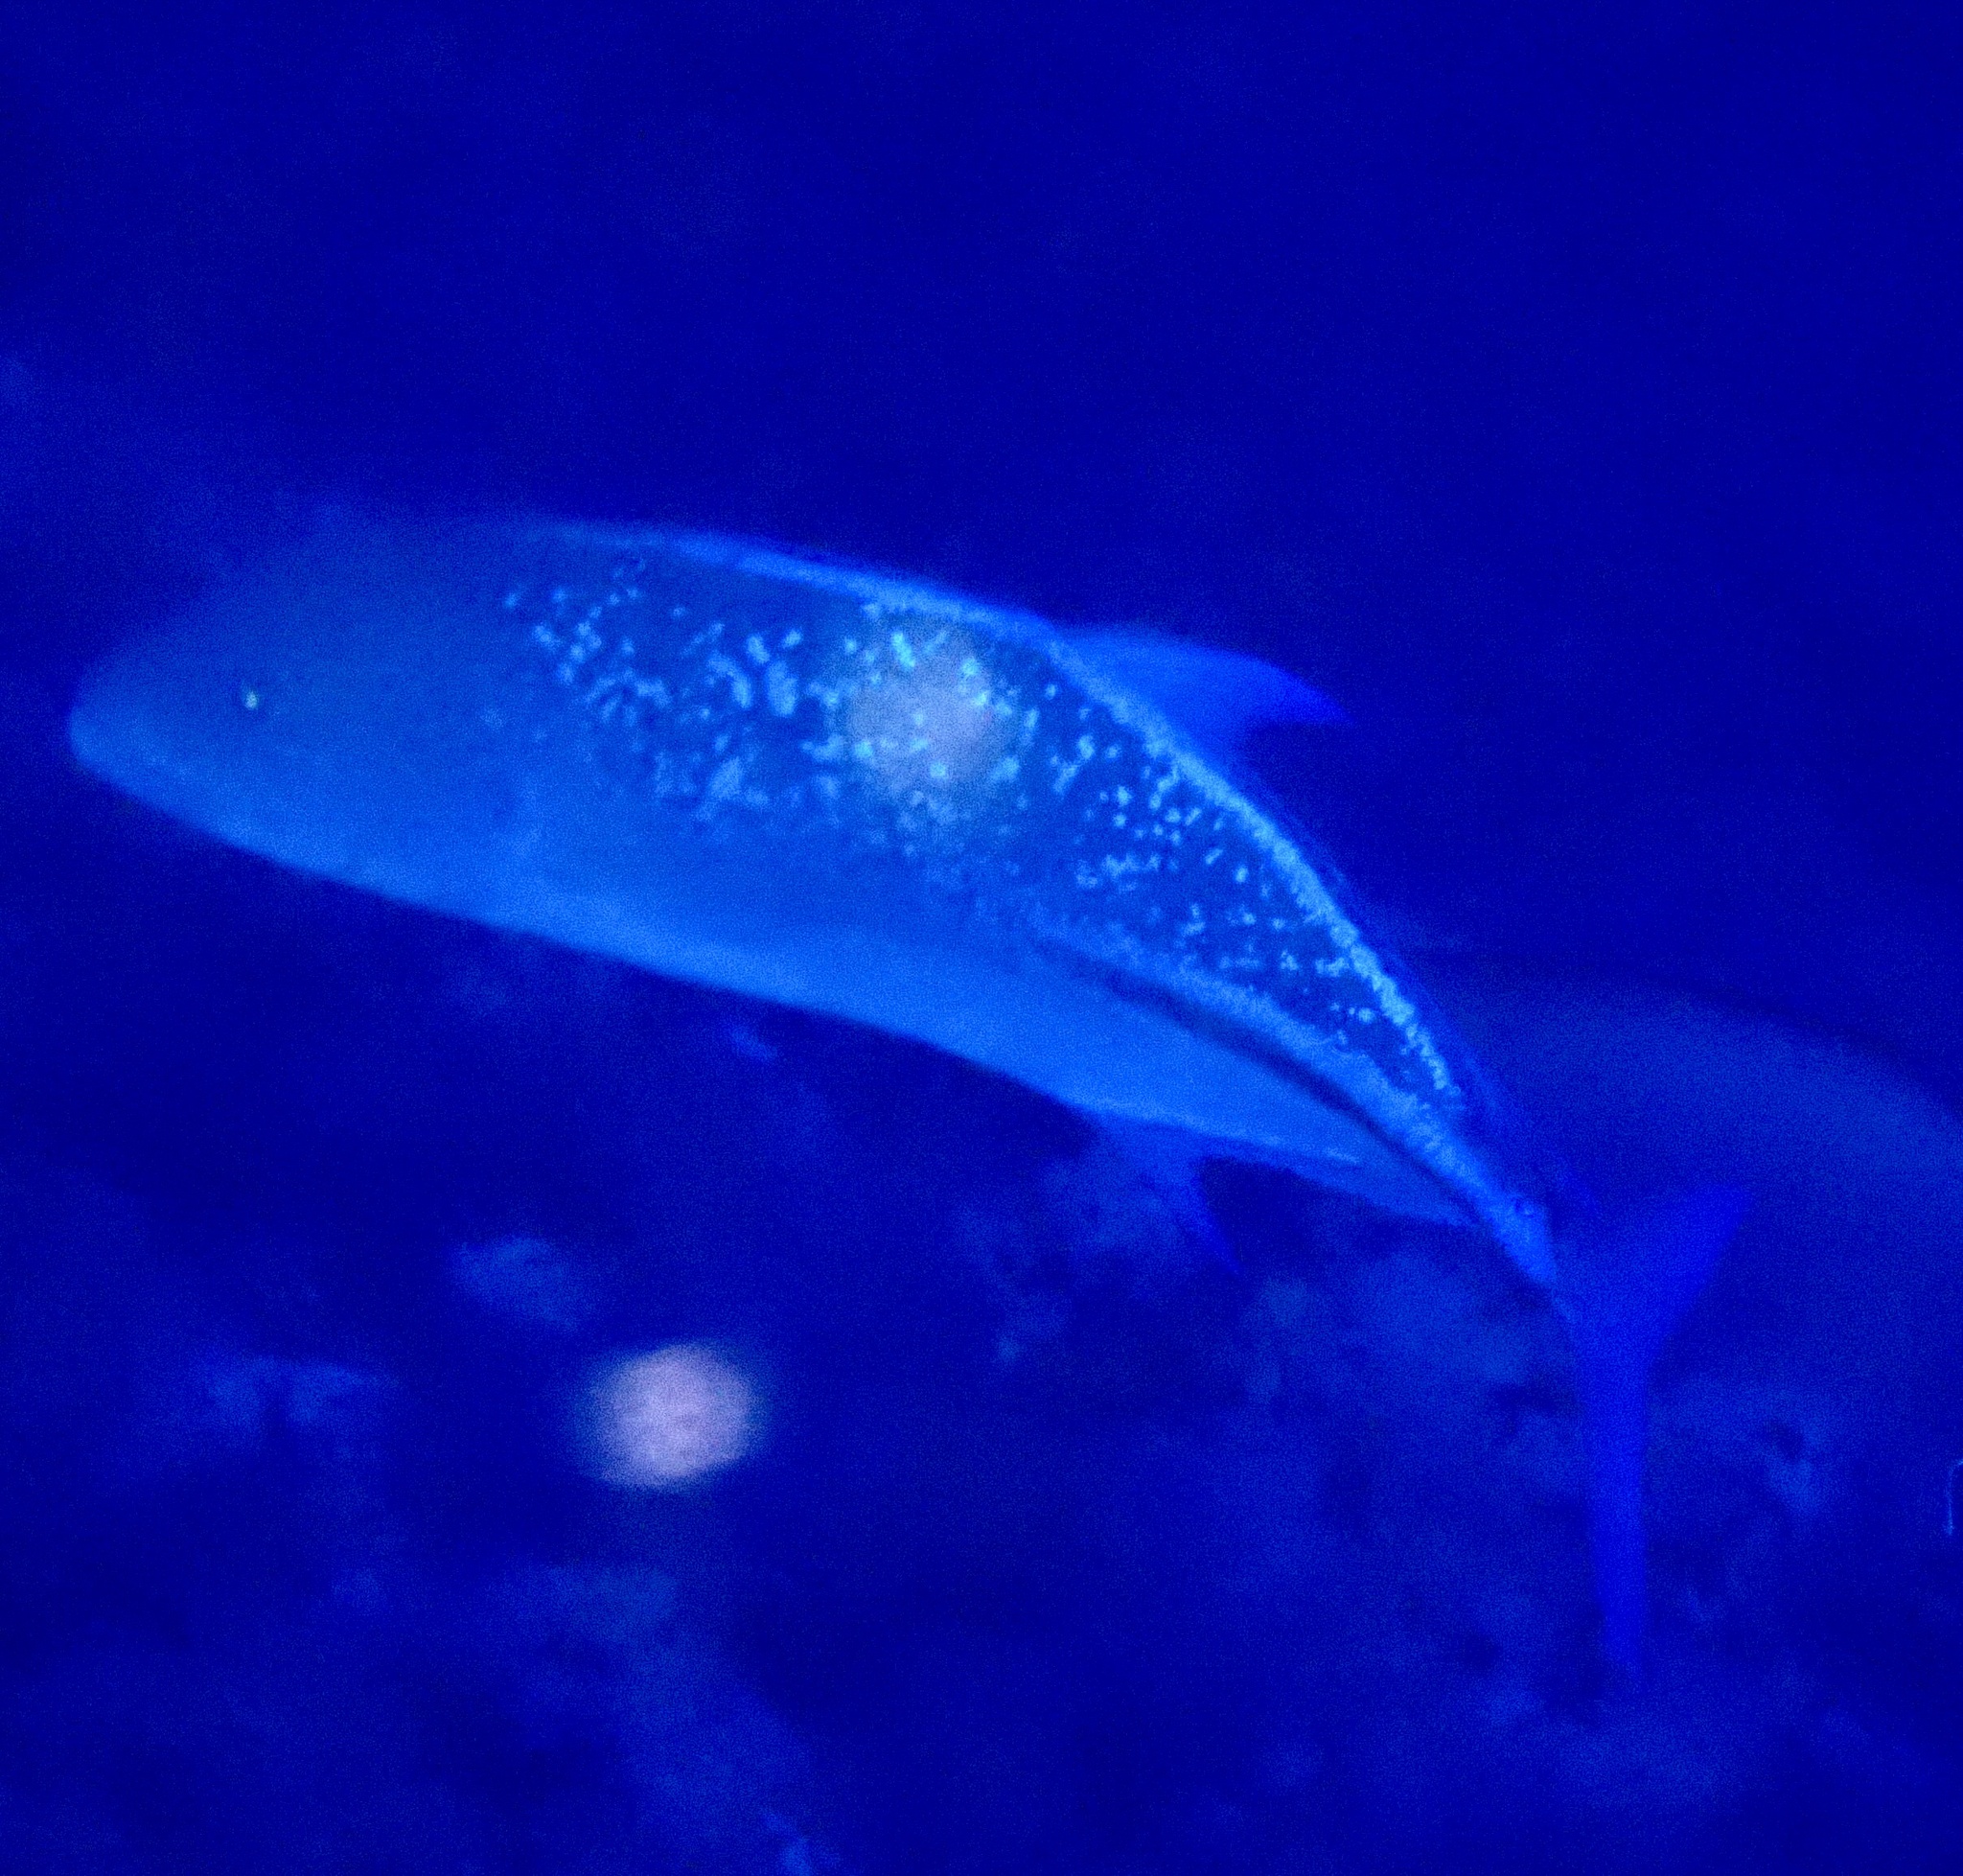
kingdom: Animalia
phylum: Chordata
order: Perciformes
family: Carangidae
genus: Caranx
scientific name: Caranx melampygus
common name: Bluefin trevally
